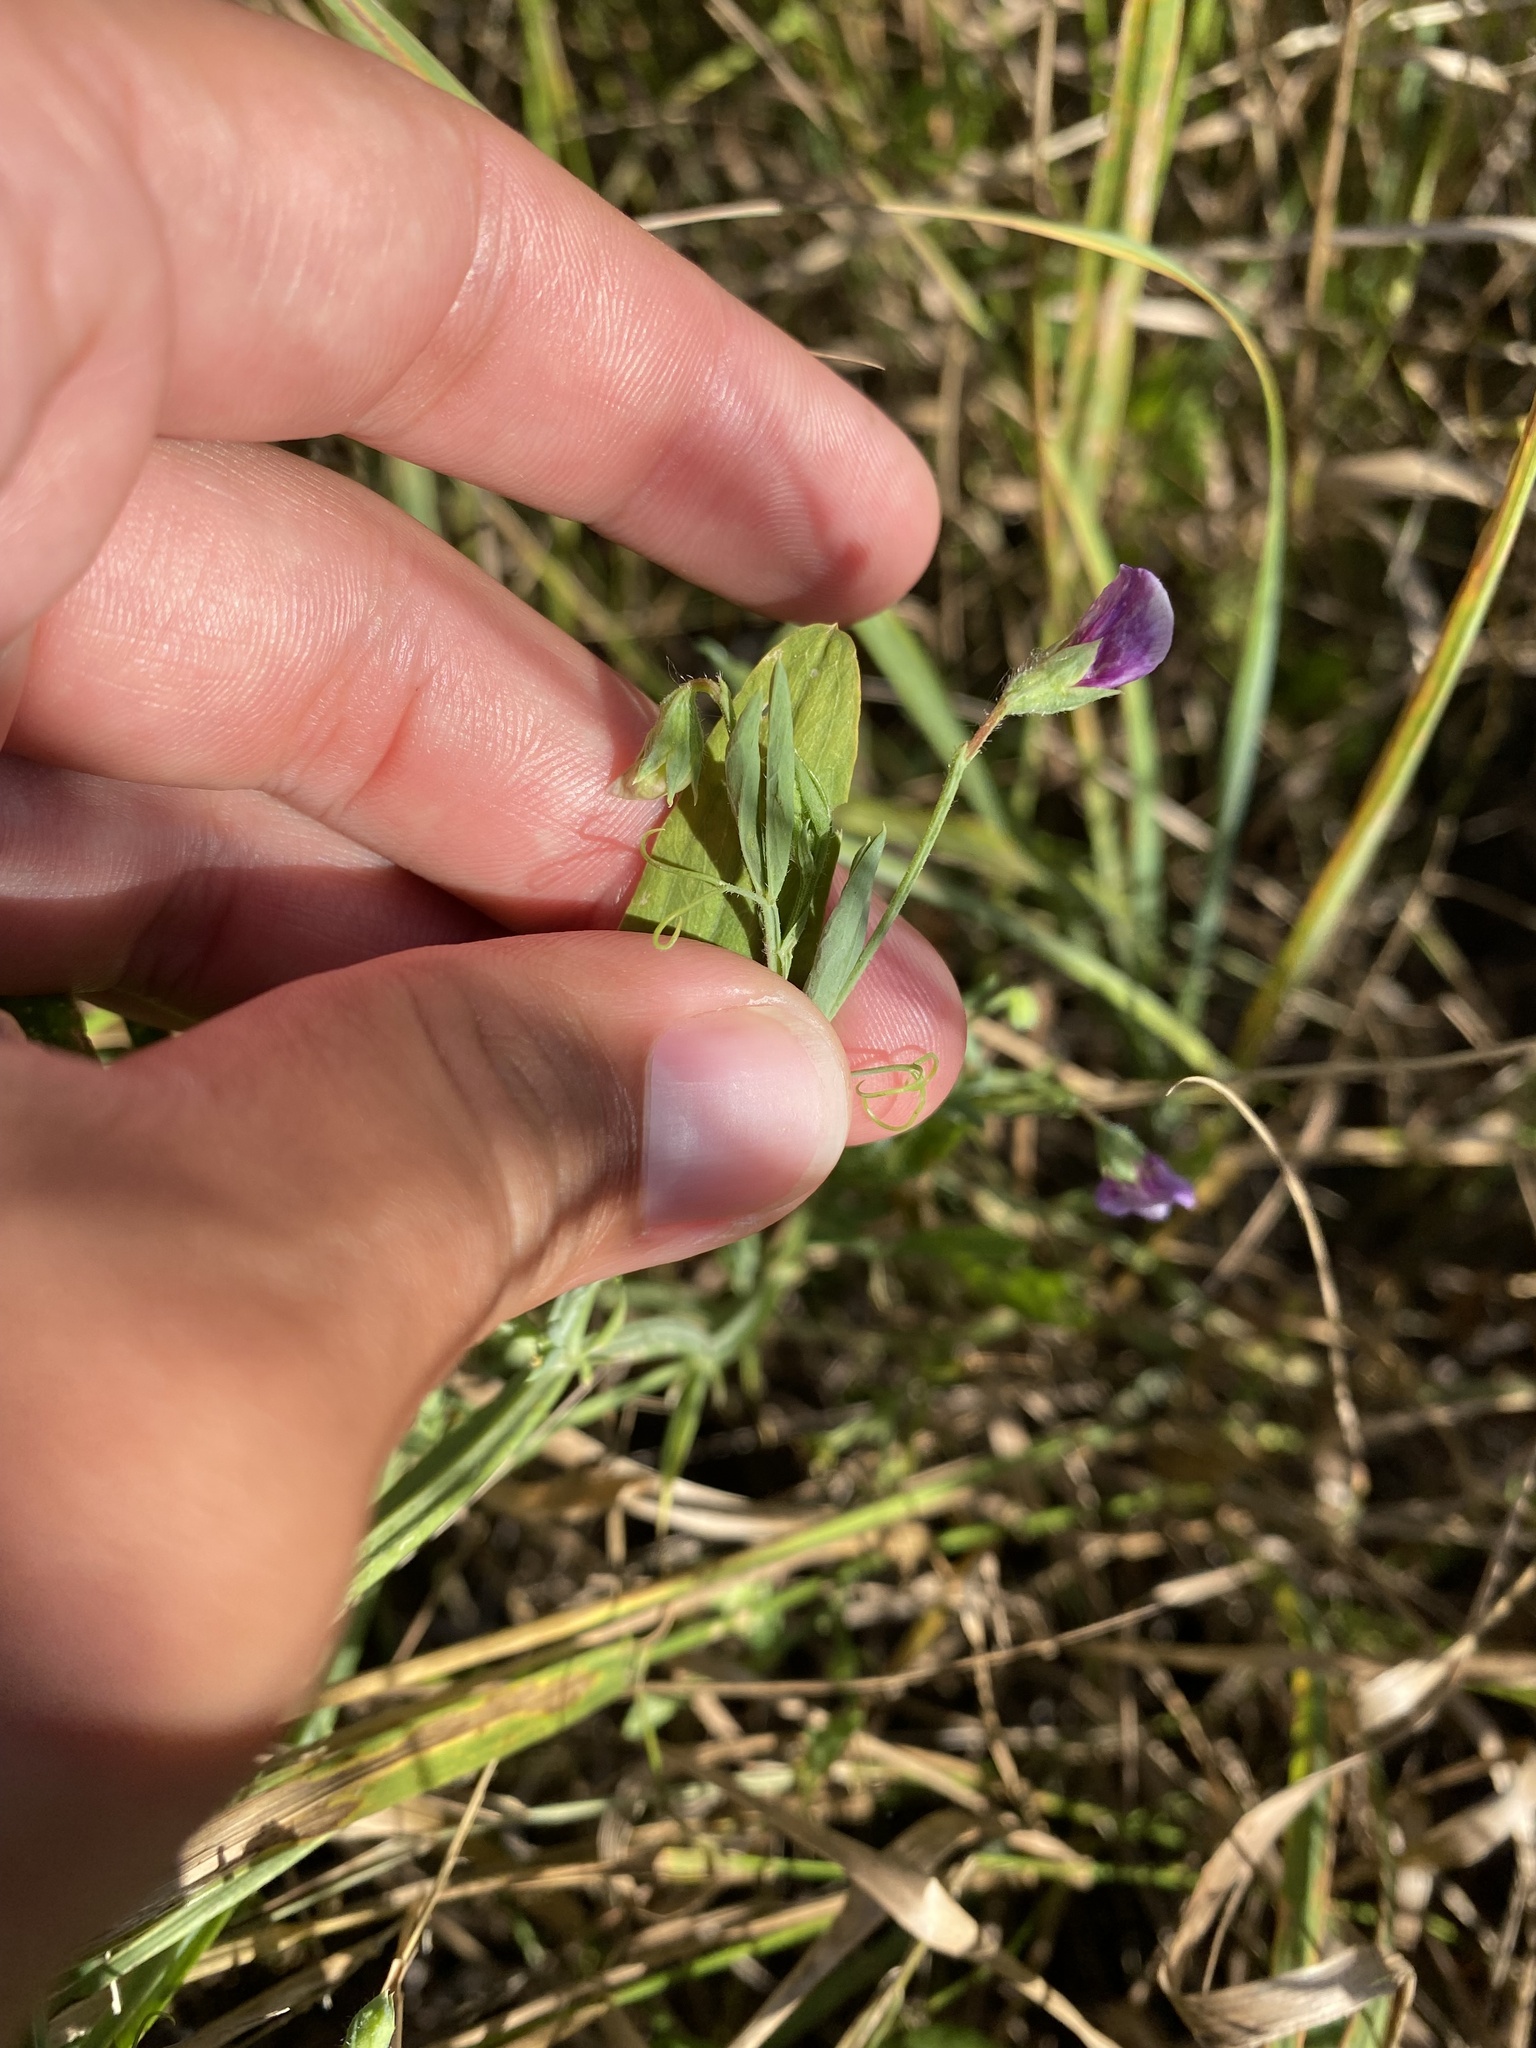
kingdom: Plantae
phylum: Tracheophyta
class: Magnoliopsida
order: Fabales
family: Fabaceae
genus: Lathyrus
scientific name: Lathyrus hirsutus
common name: Hairy vetchling
